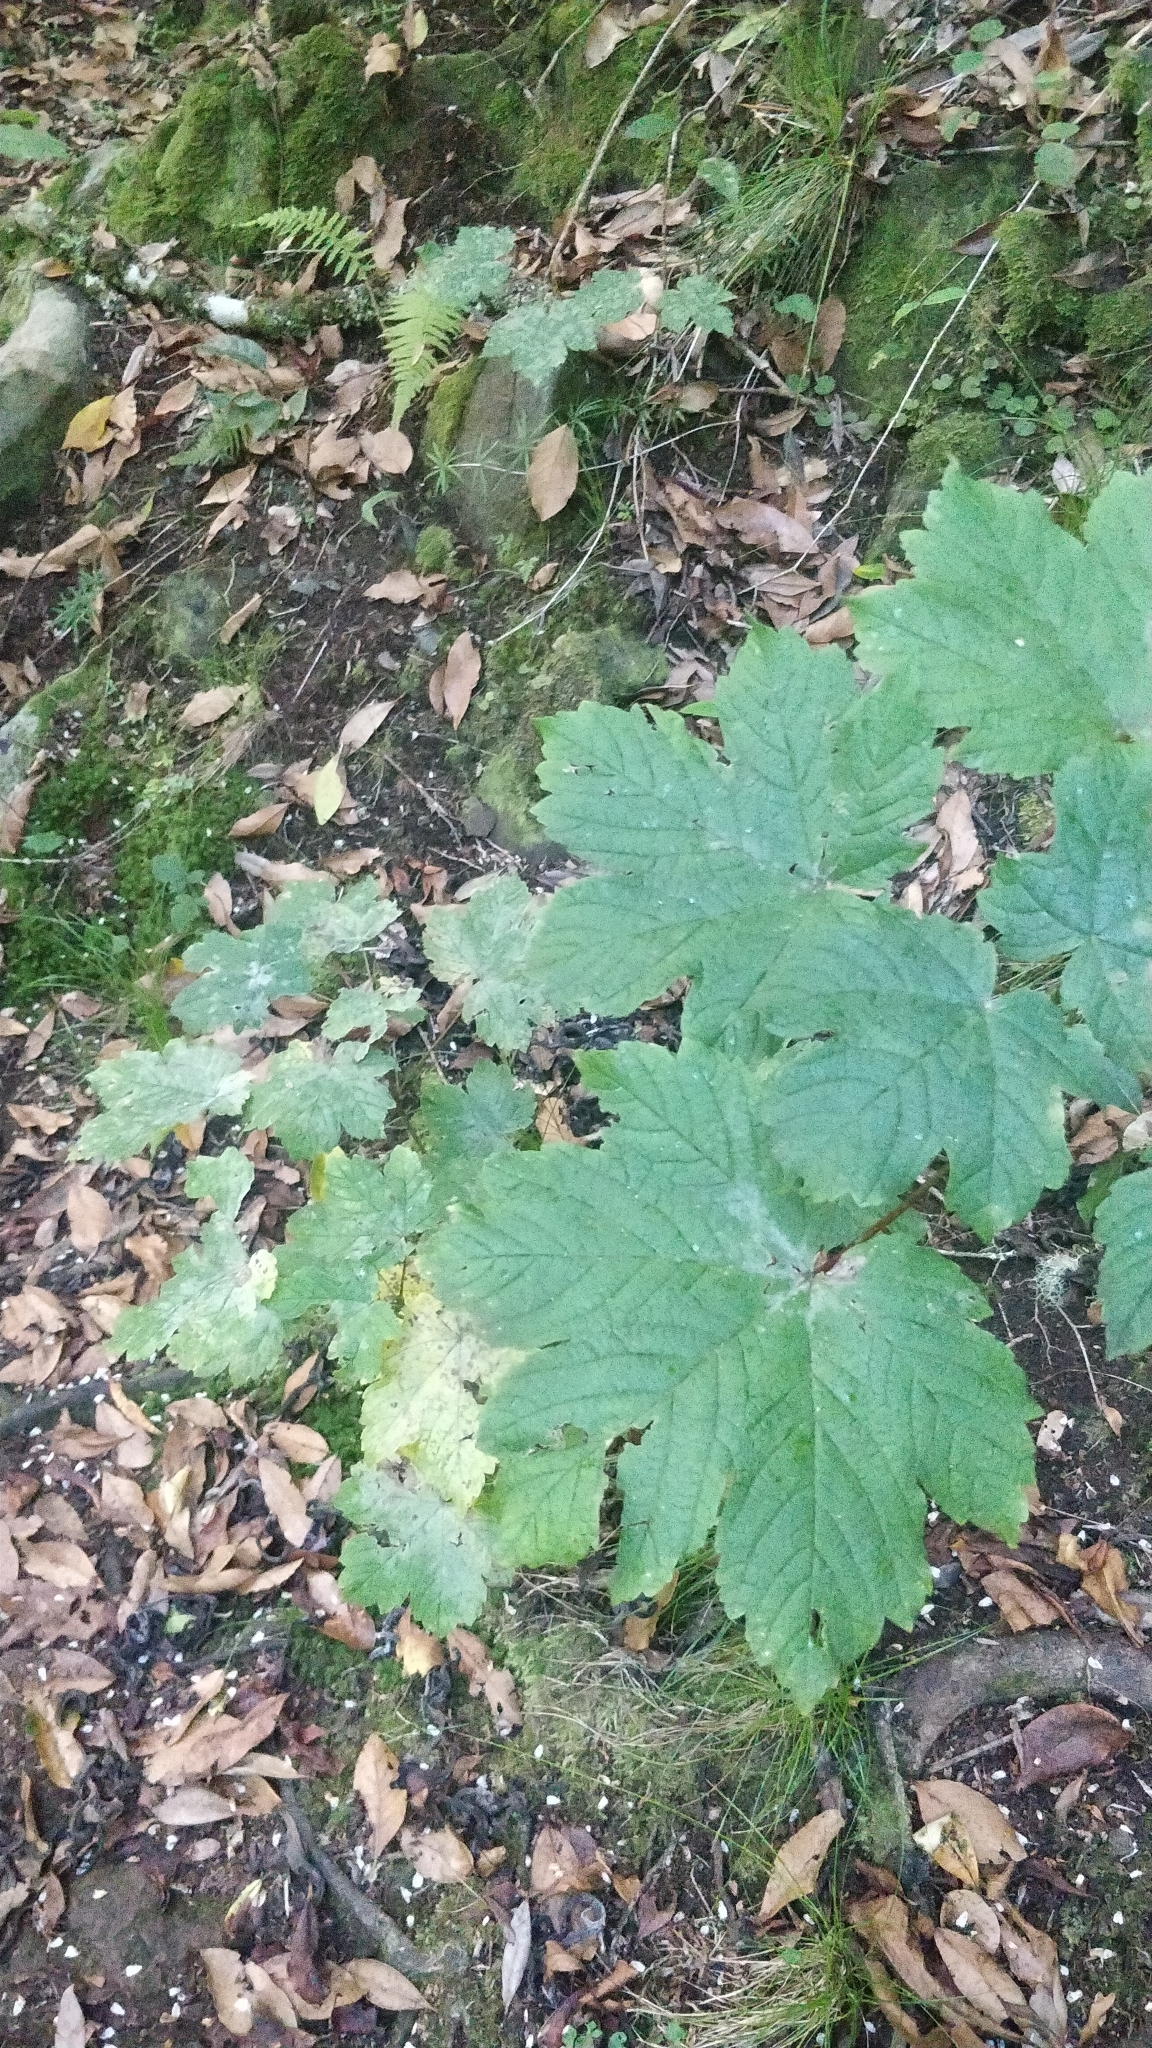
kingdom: Plantae
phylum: Tracheophyta
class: Magnoliopsida
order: Sapindales
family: Sapindaceae
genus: Acer
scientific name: Acer pseudoplatanus
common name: Sycamore
